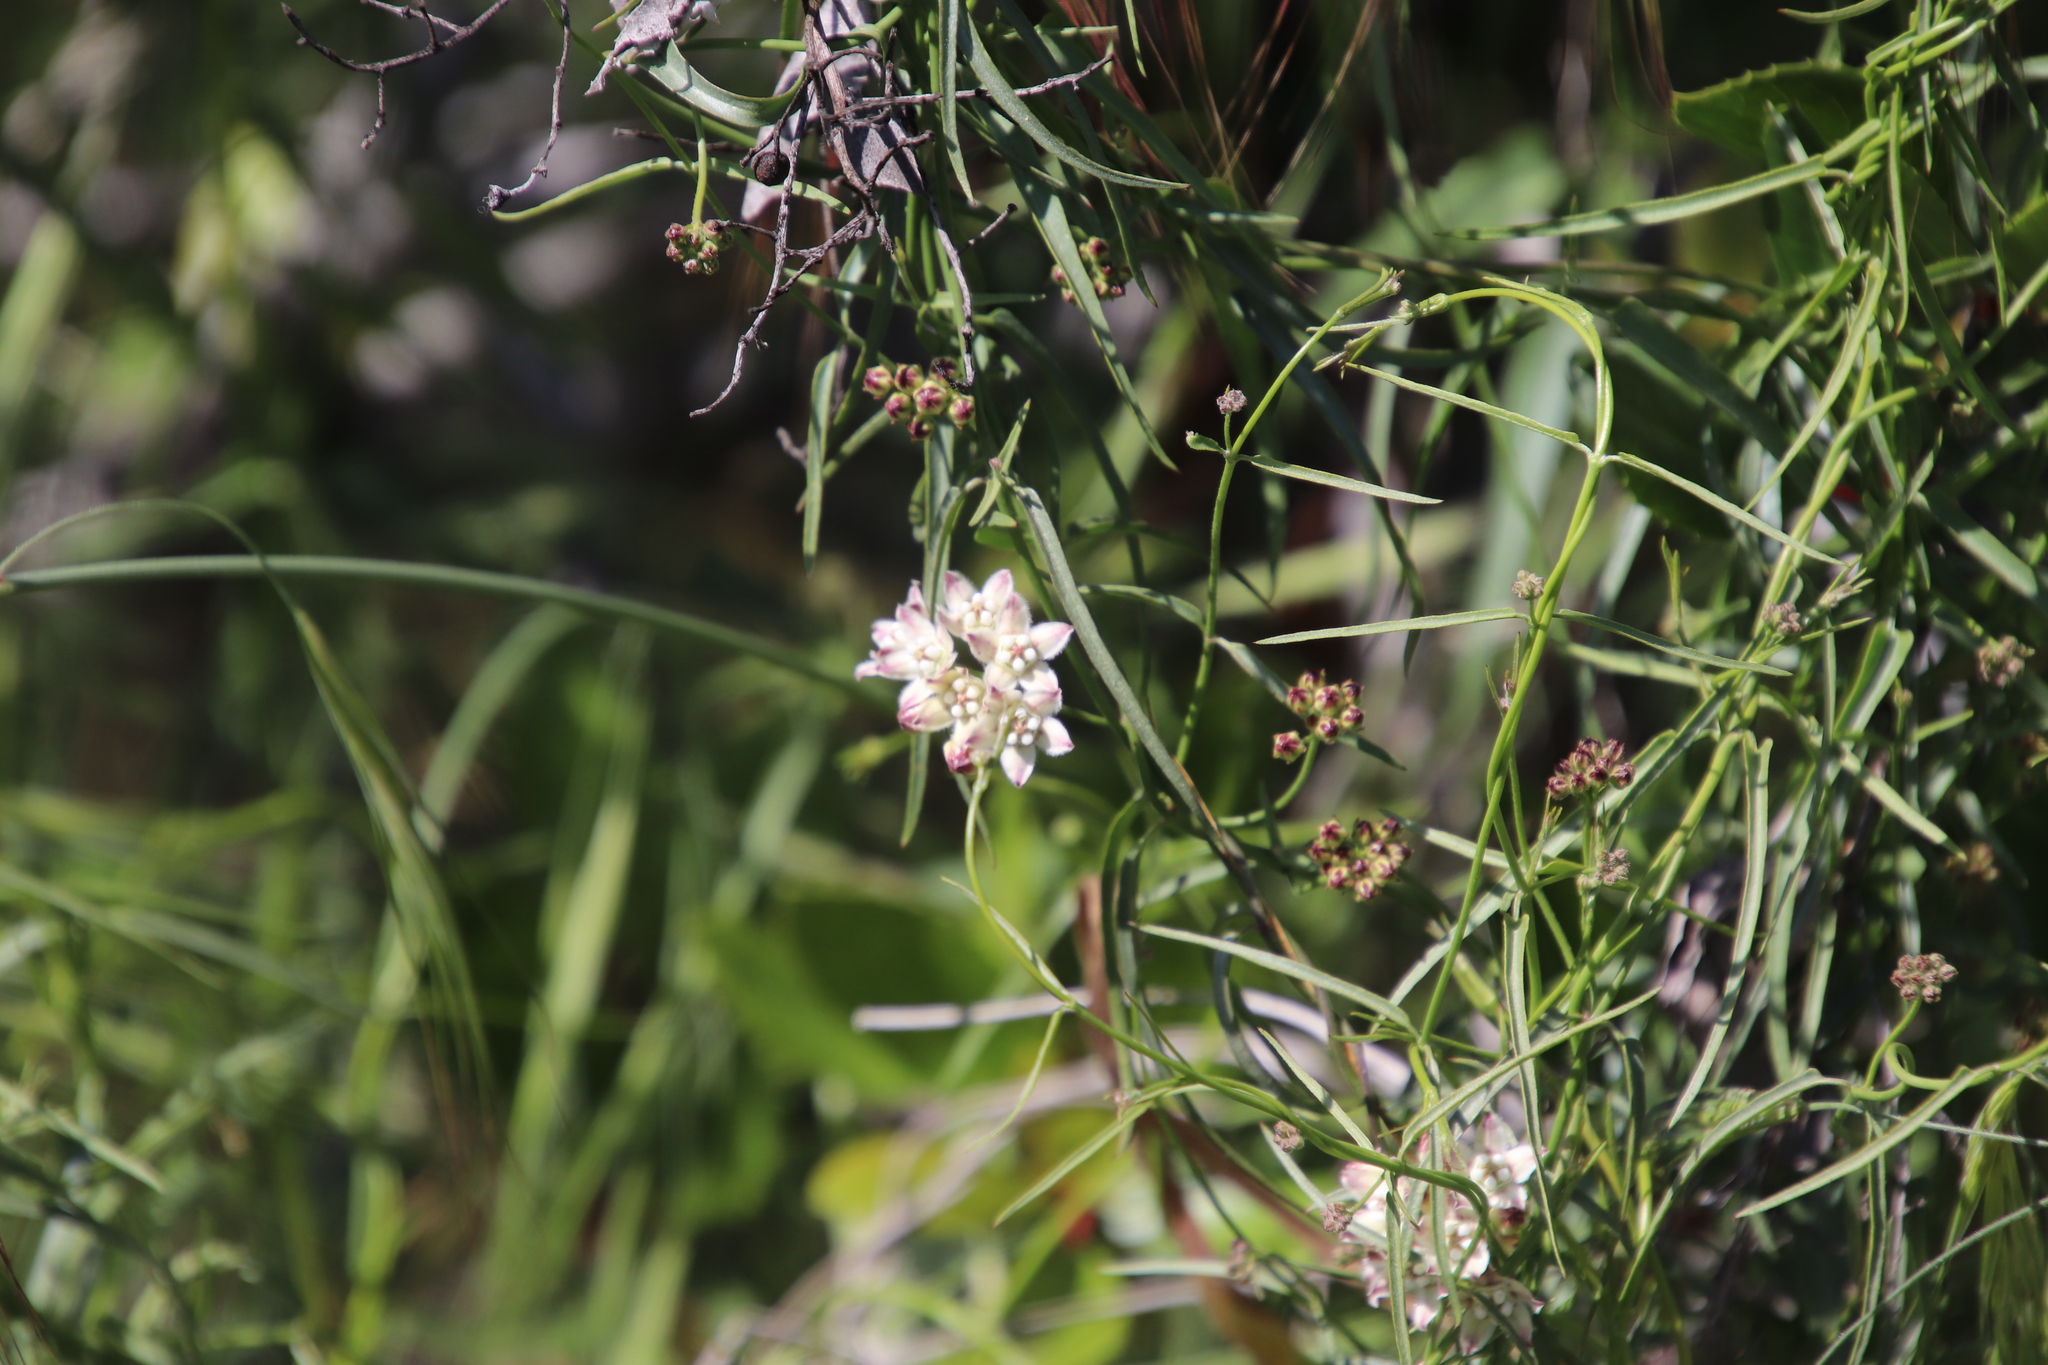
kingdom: Plantae
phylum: Tracheophyta
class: Magnoliopsida
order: Gentianales
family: Apocynaceae
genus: Funastrum
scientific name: Funastrum heterophyllum
